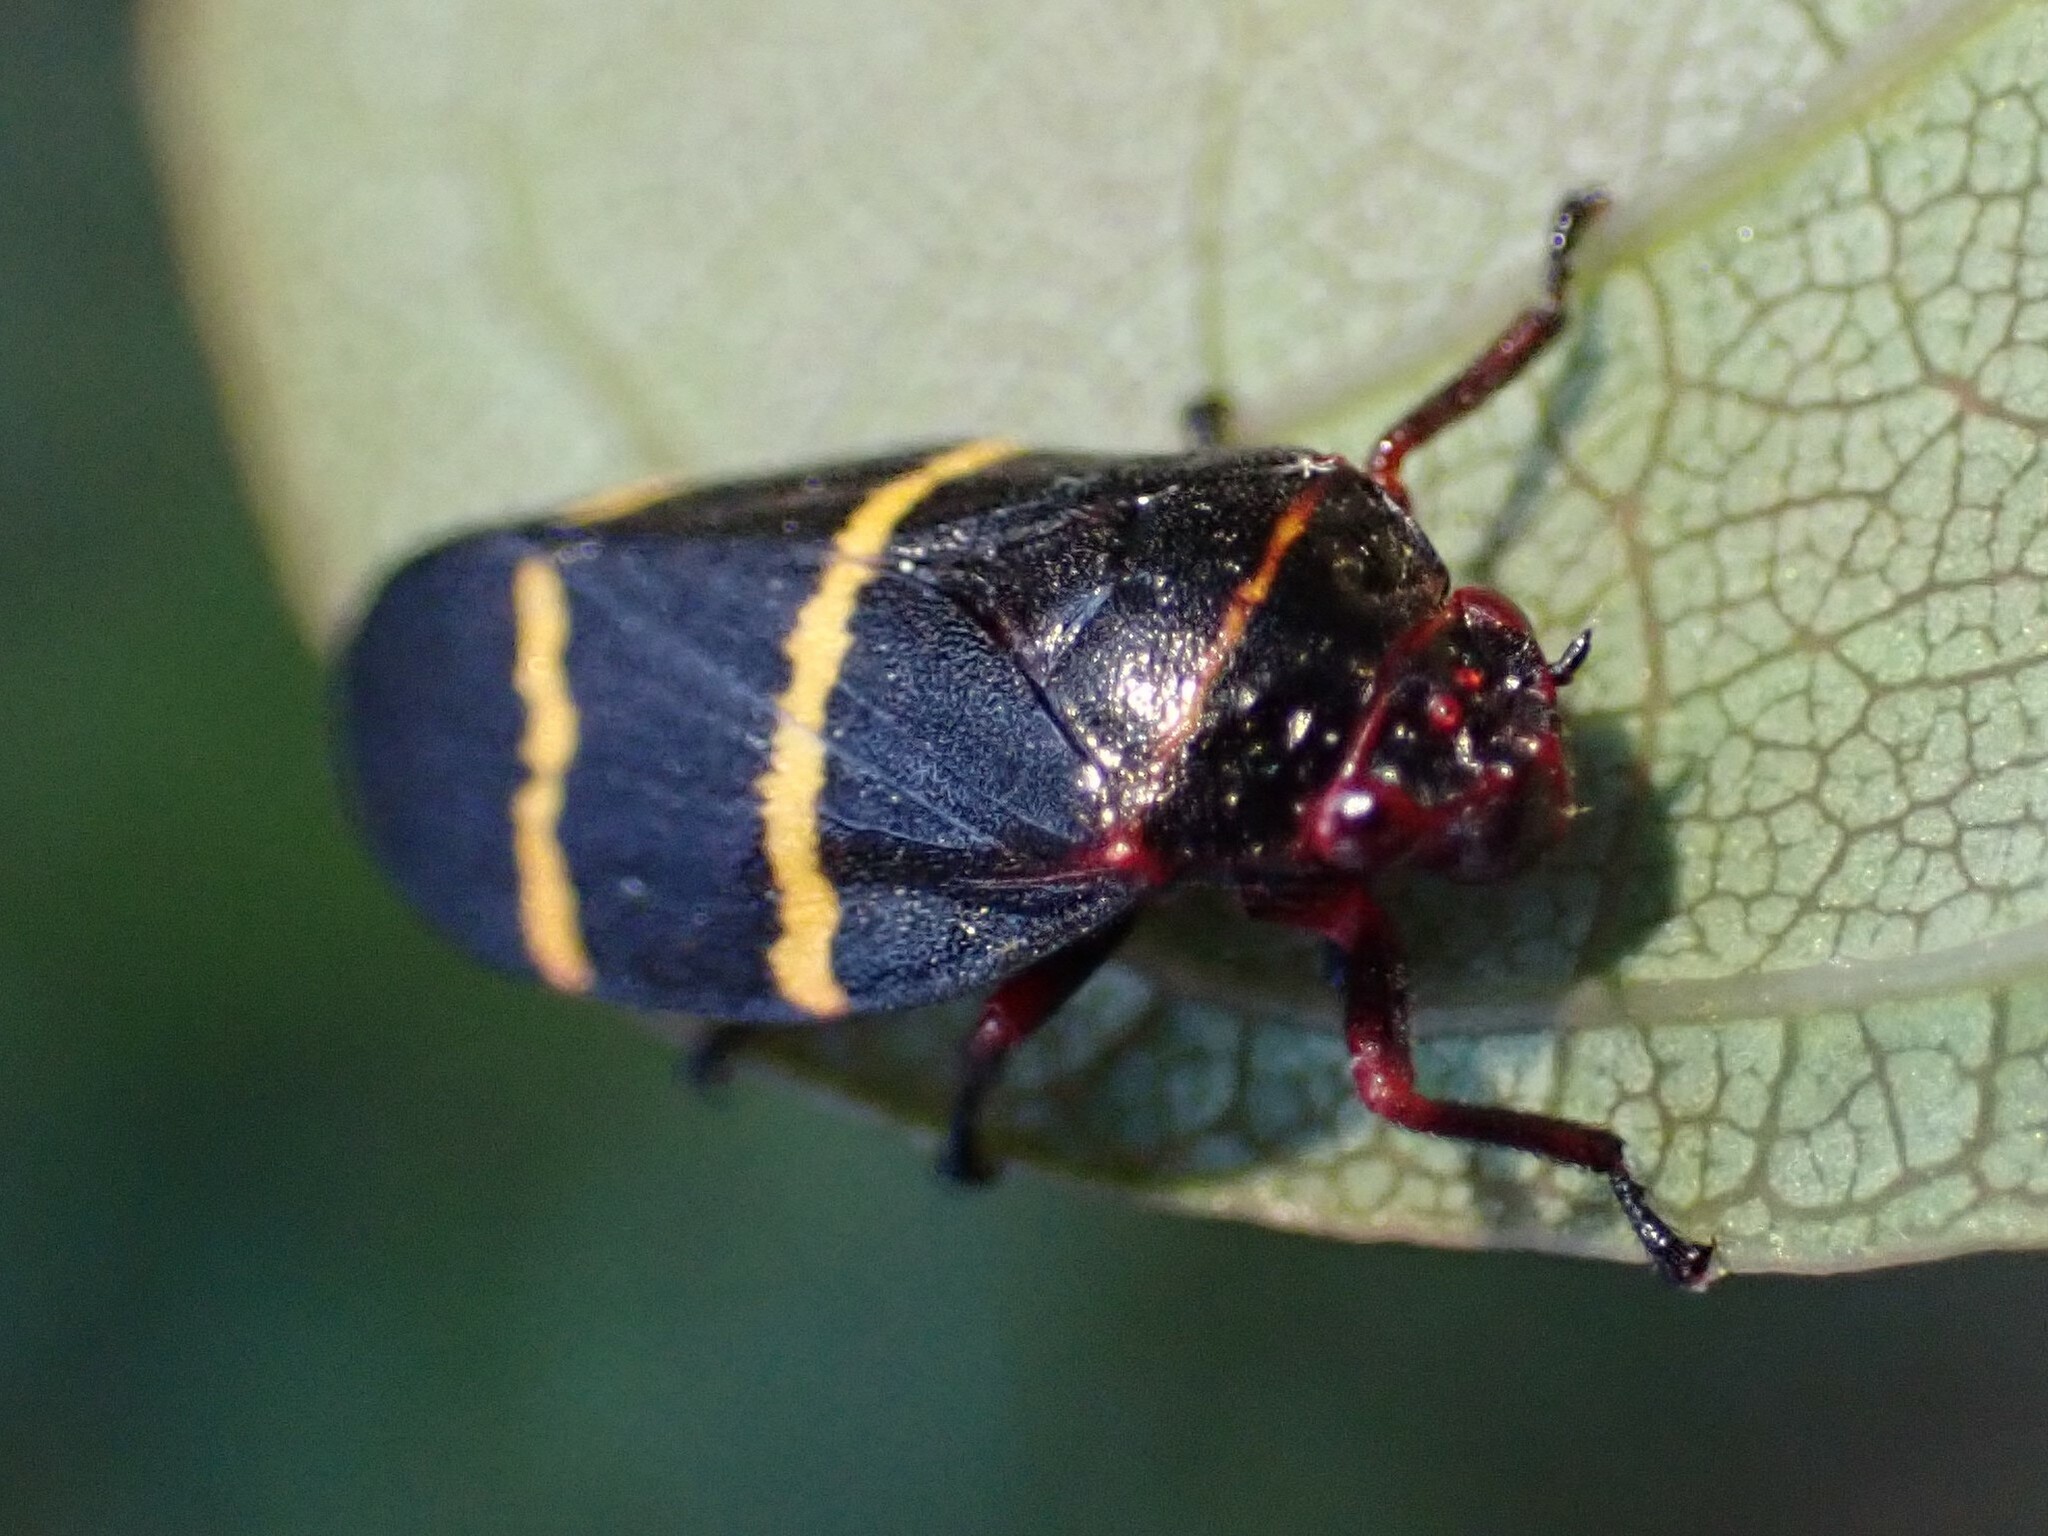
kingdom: Animalia
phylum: Arthropoda
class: Insecta
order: Hemiptera
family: Cercopidae
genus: Prosapia
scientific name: Prosapia bicincta
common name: Twolined spittlebug
